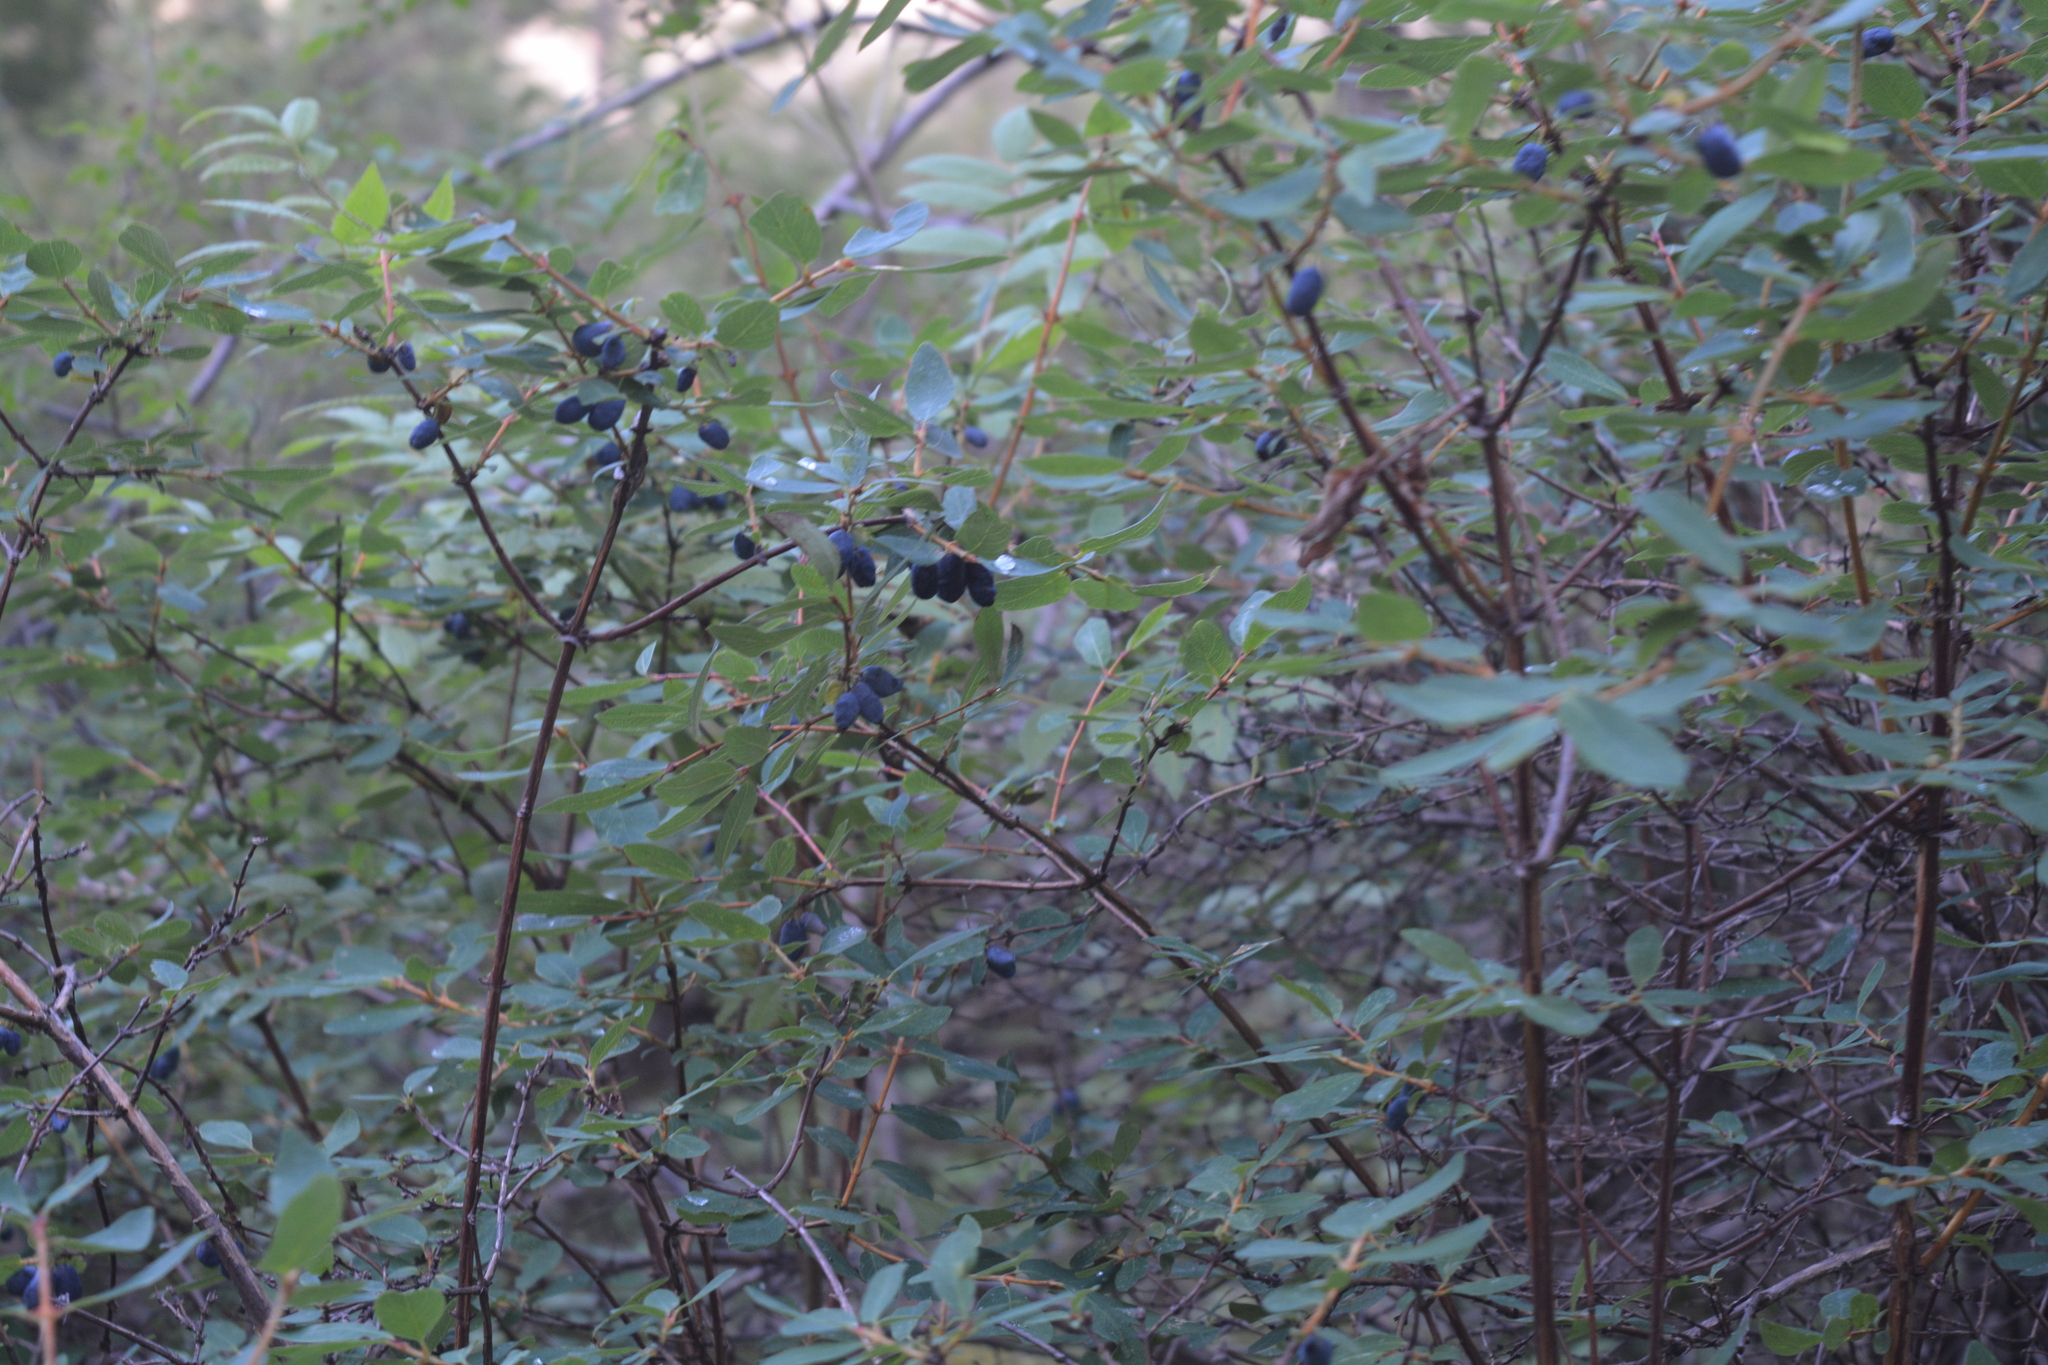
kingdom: Plantae
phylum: Tracheophyta
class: Magnoliopsida
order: Dipsacales
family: Caprifoliaceae
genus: Lonicera
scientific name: Lonicera caerulea
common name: Blue honeysuckle
